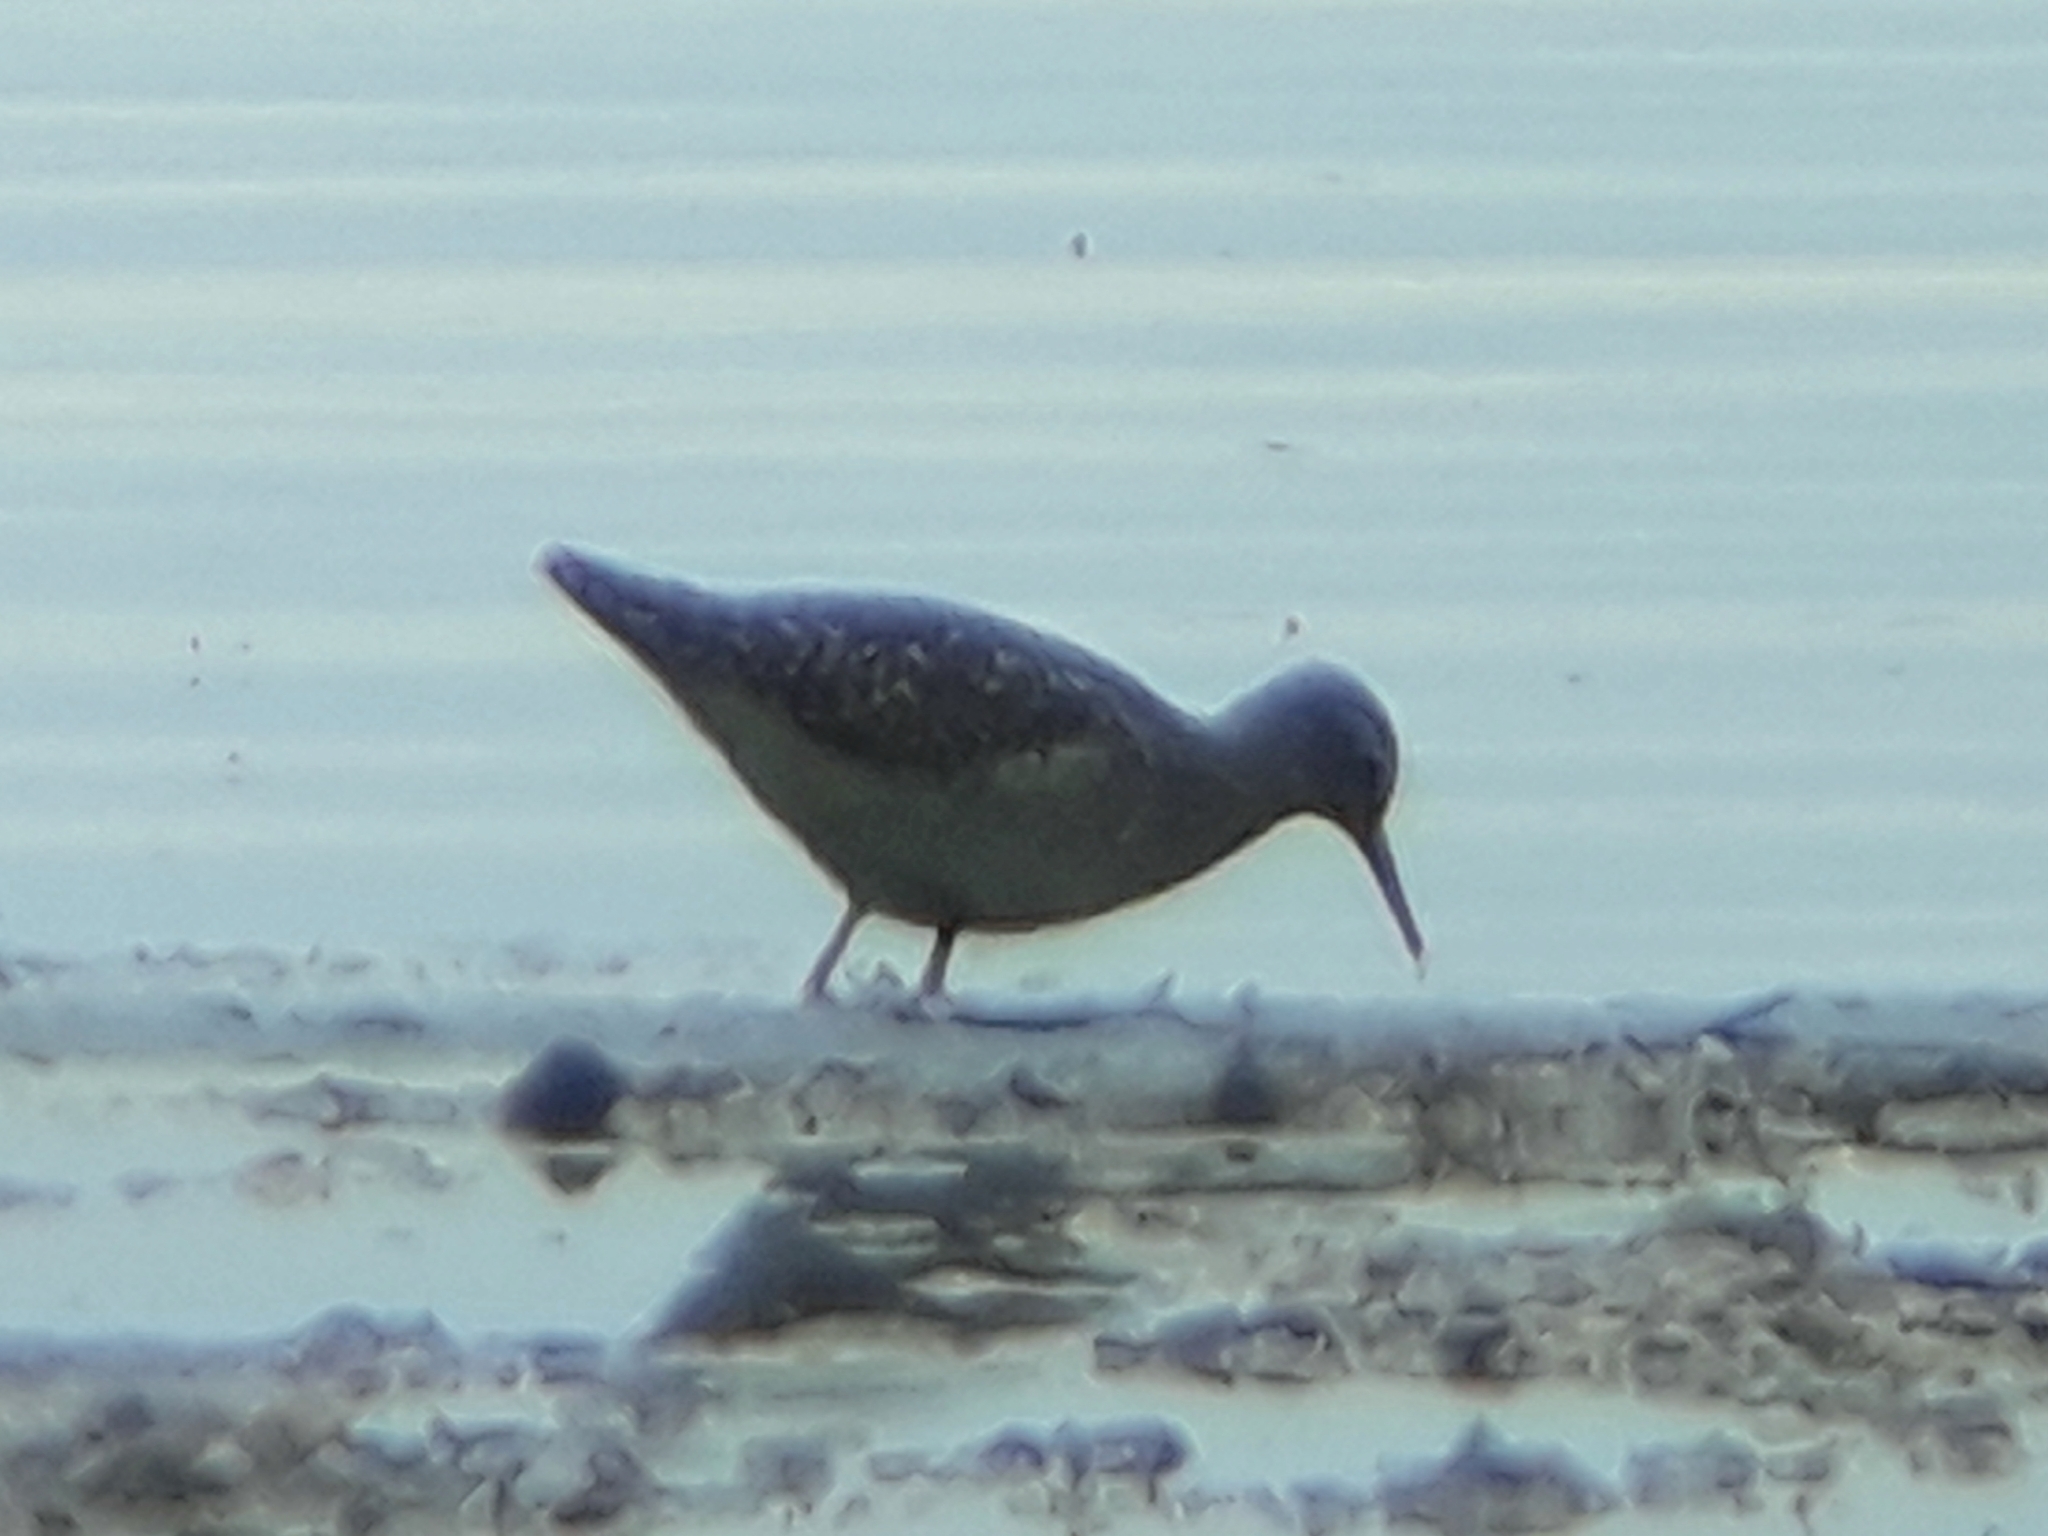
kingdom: Animalia
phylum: Chordata
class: Aves
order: Charadriiformes
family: Scolopacidae
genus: Tringa
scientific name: Tringa glareola
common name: Wood sandpiper
